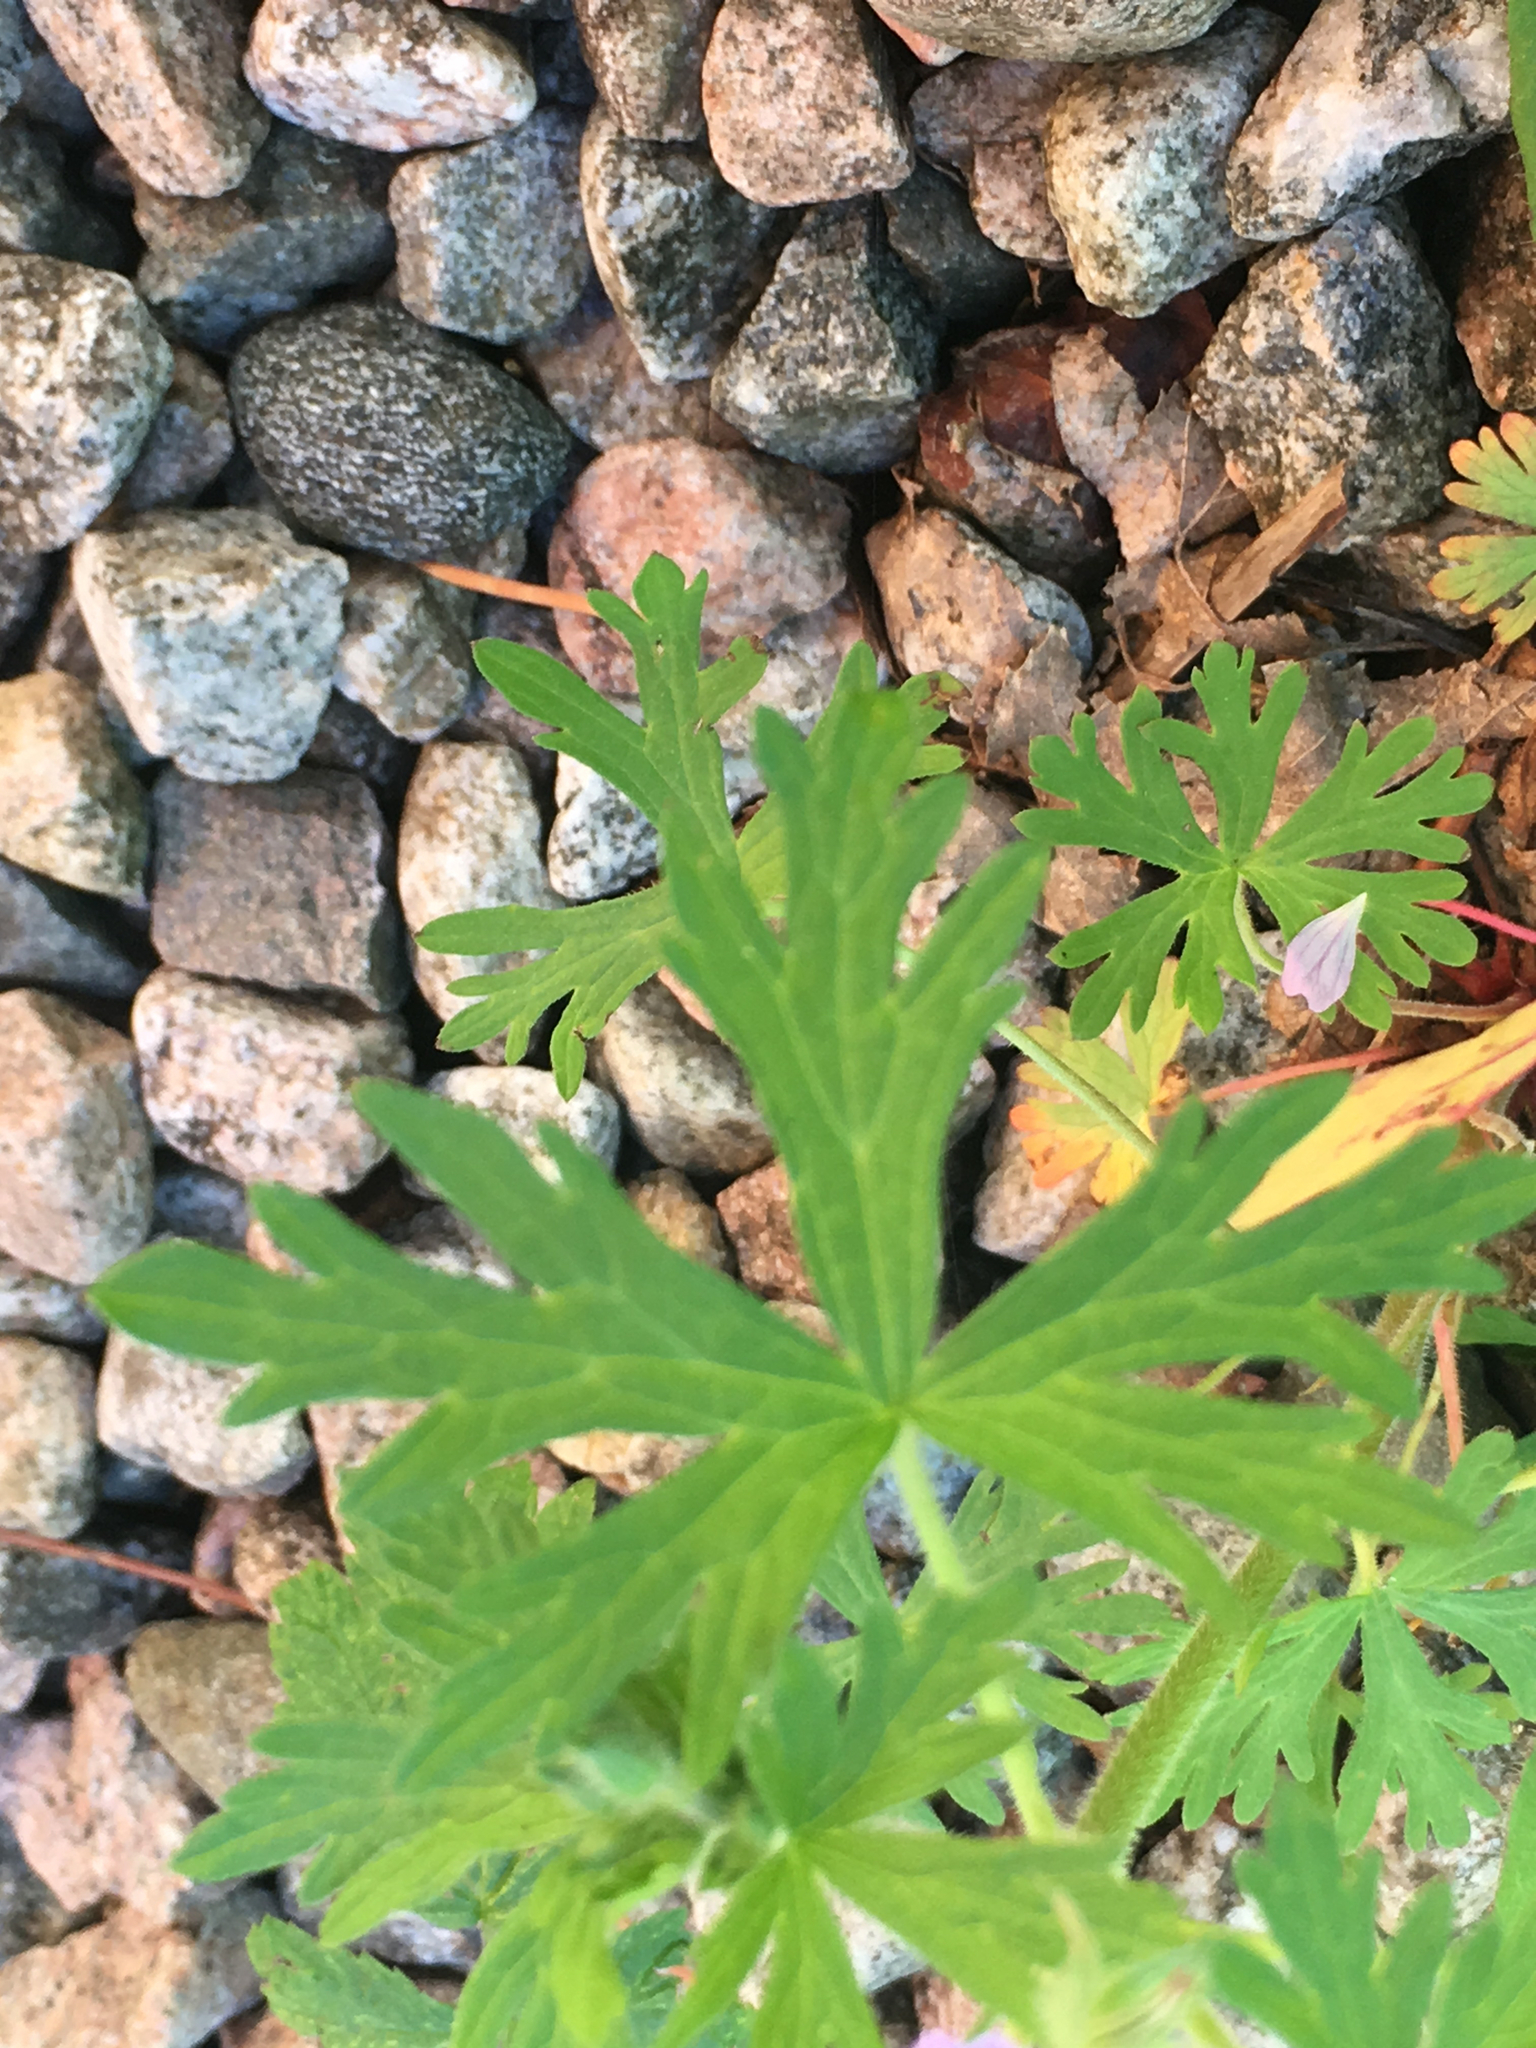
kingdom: Plantae
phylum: Tracheophyta
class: Magnoliopsida
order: Geraniales
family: Geraniaceae
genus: Geranium
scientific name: Geranium bicknellii
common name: Bicknell's cranesbill
